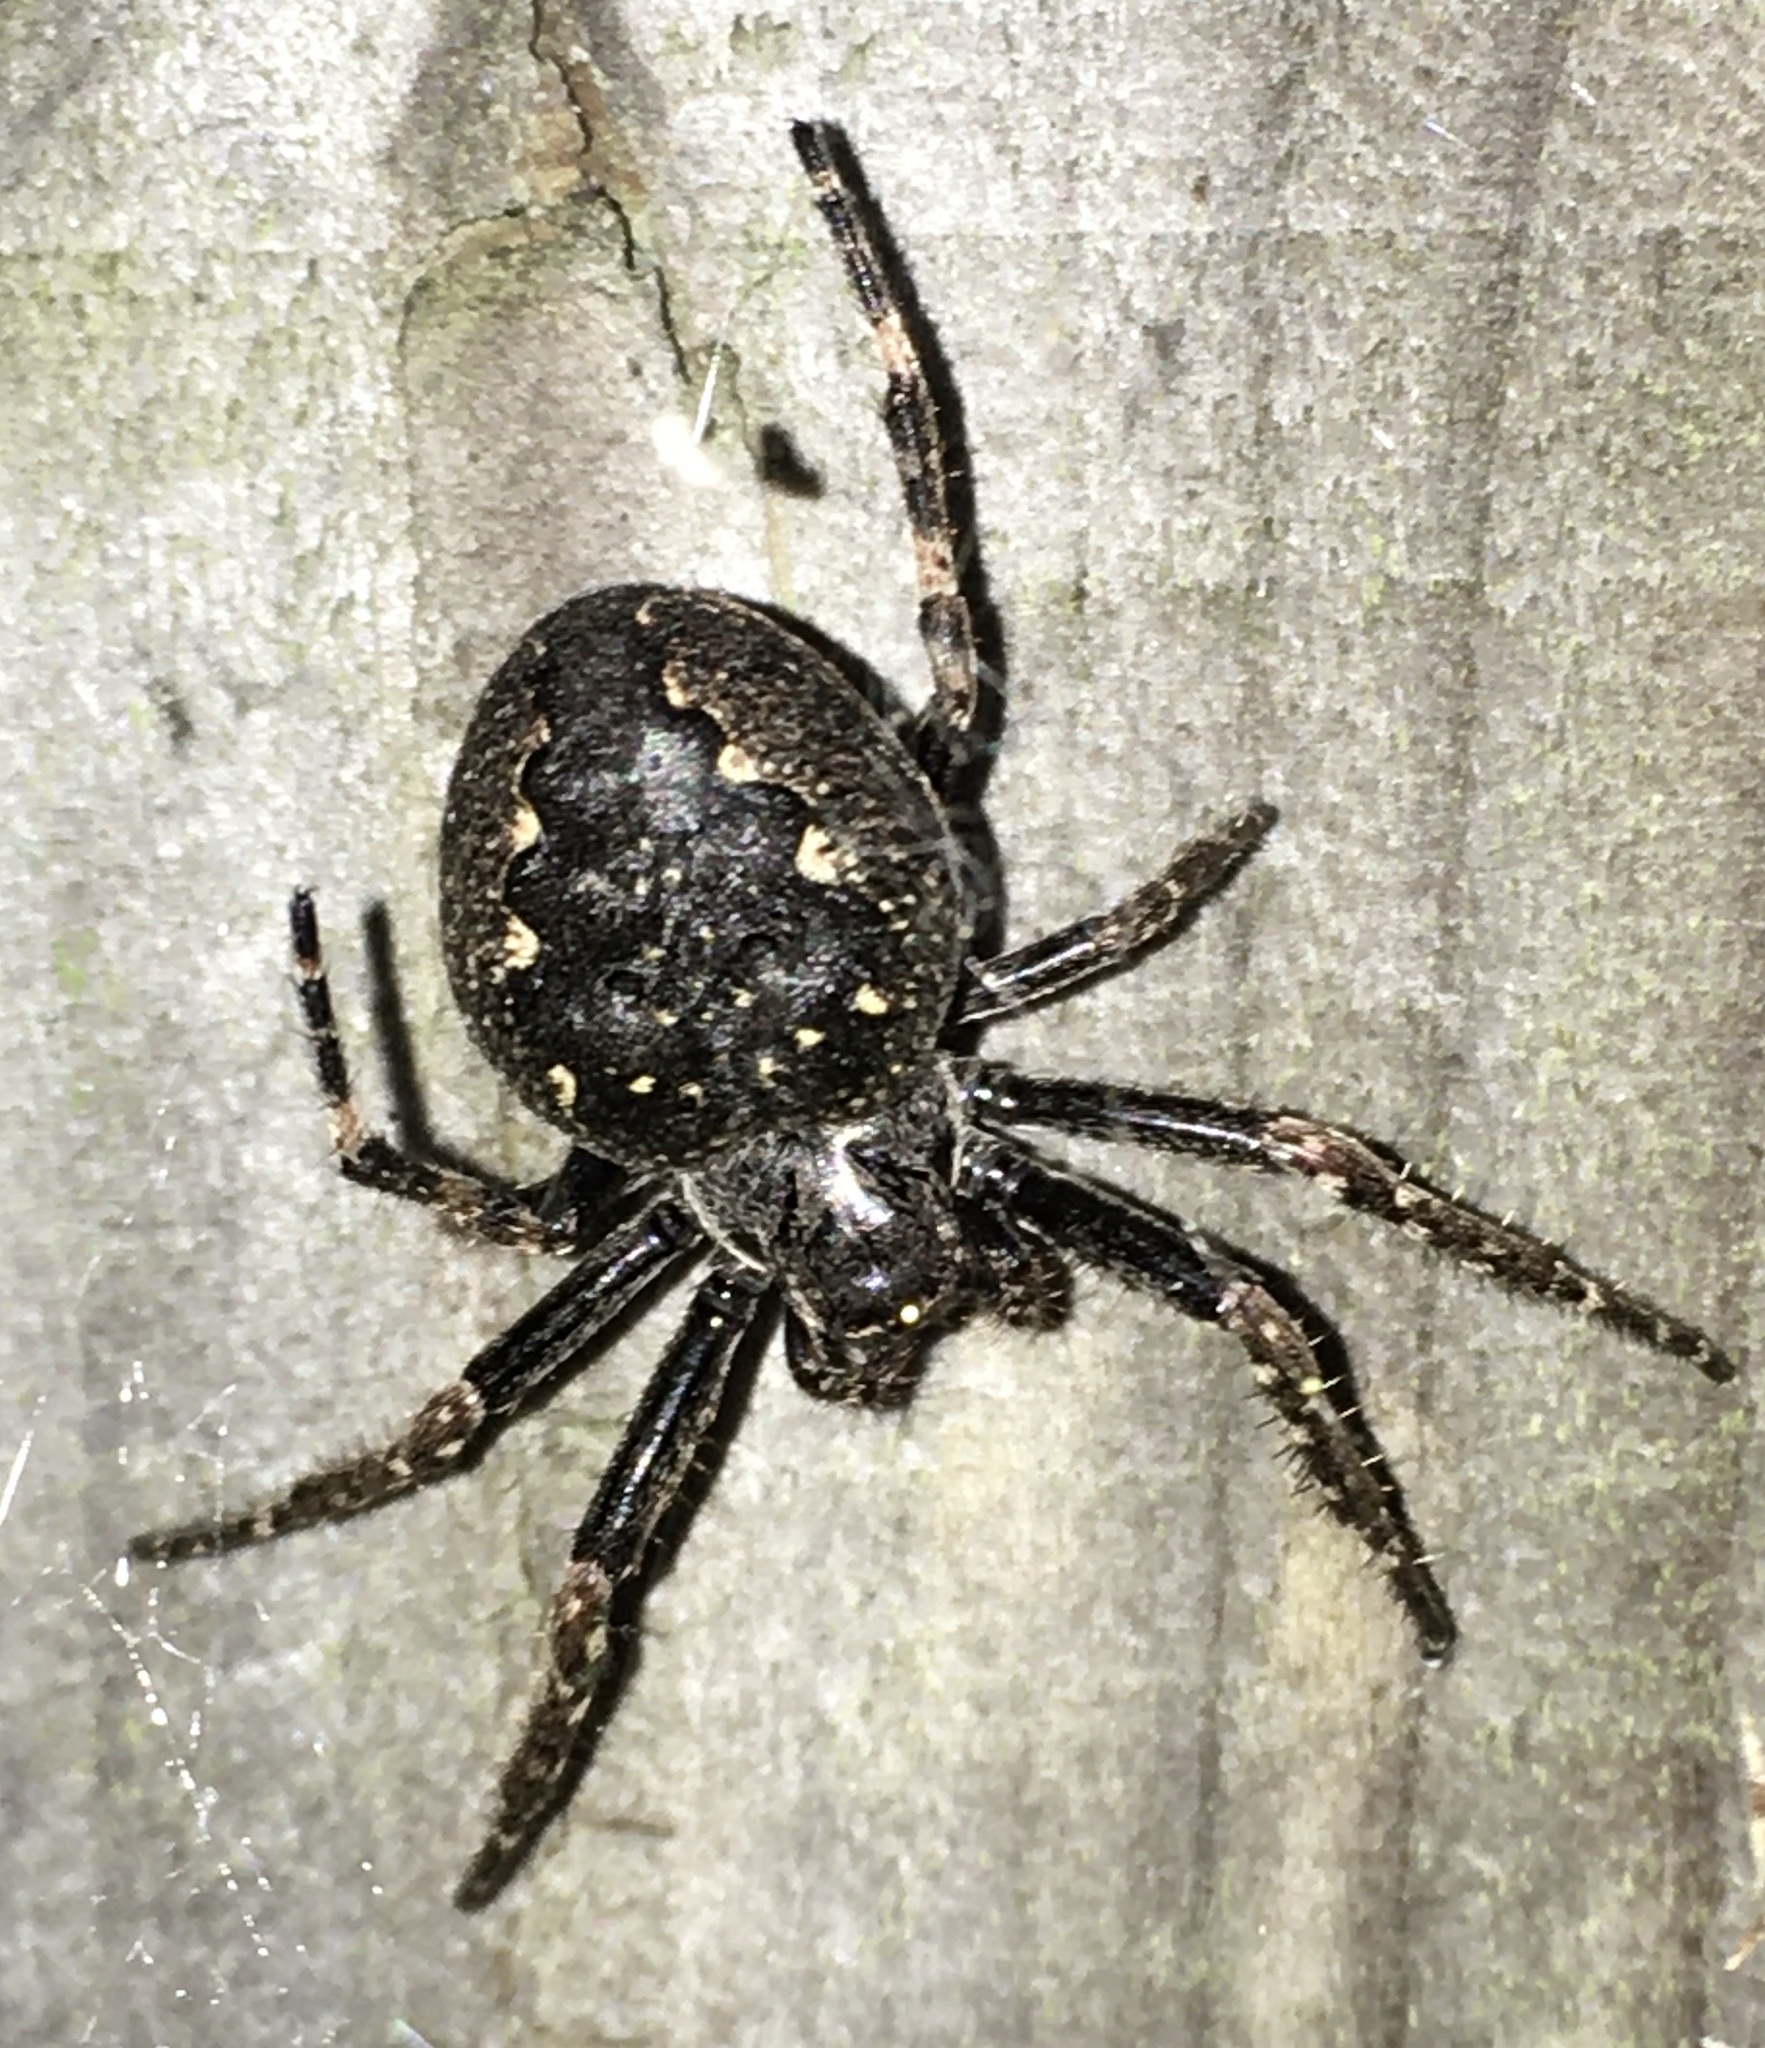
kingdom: Animalia
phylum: Arthropoda
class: Arachnida
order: Araneae
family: Araneidae
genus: Nuctenea
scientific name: Nuctenea umbratica
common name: Toad spider
